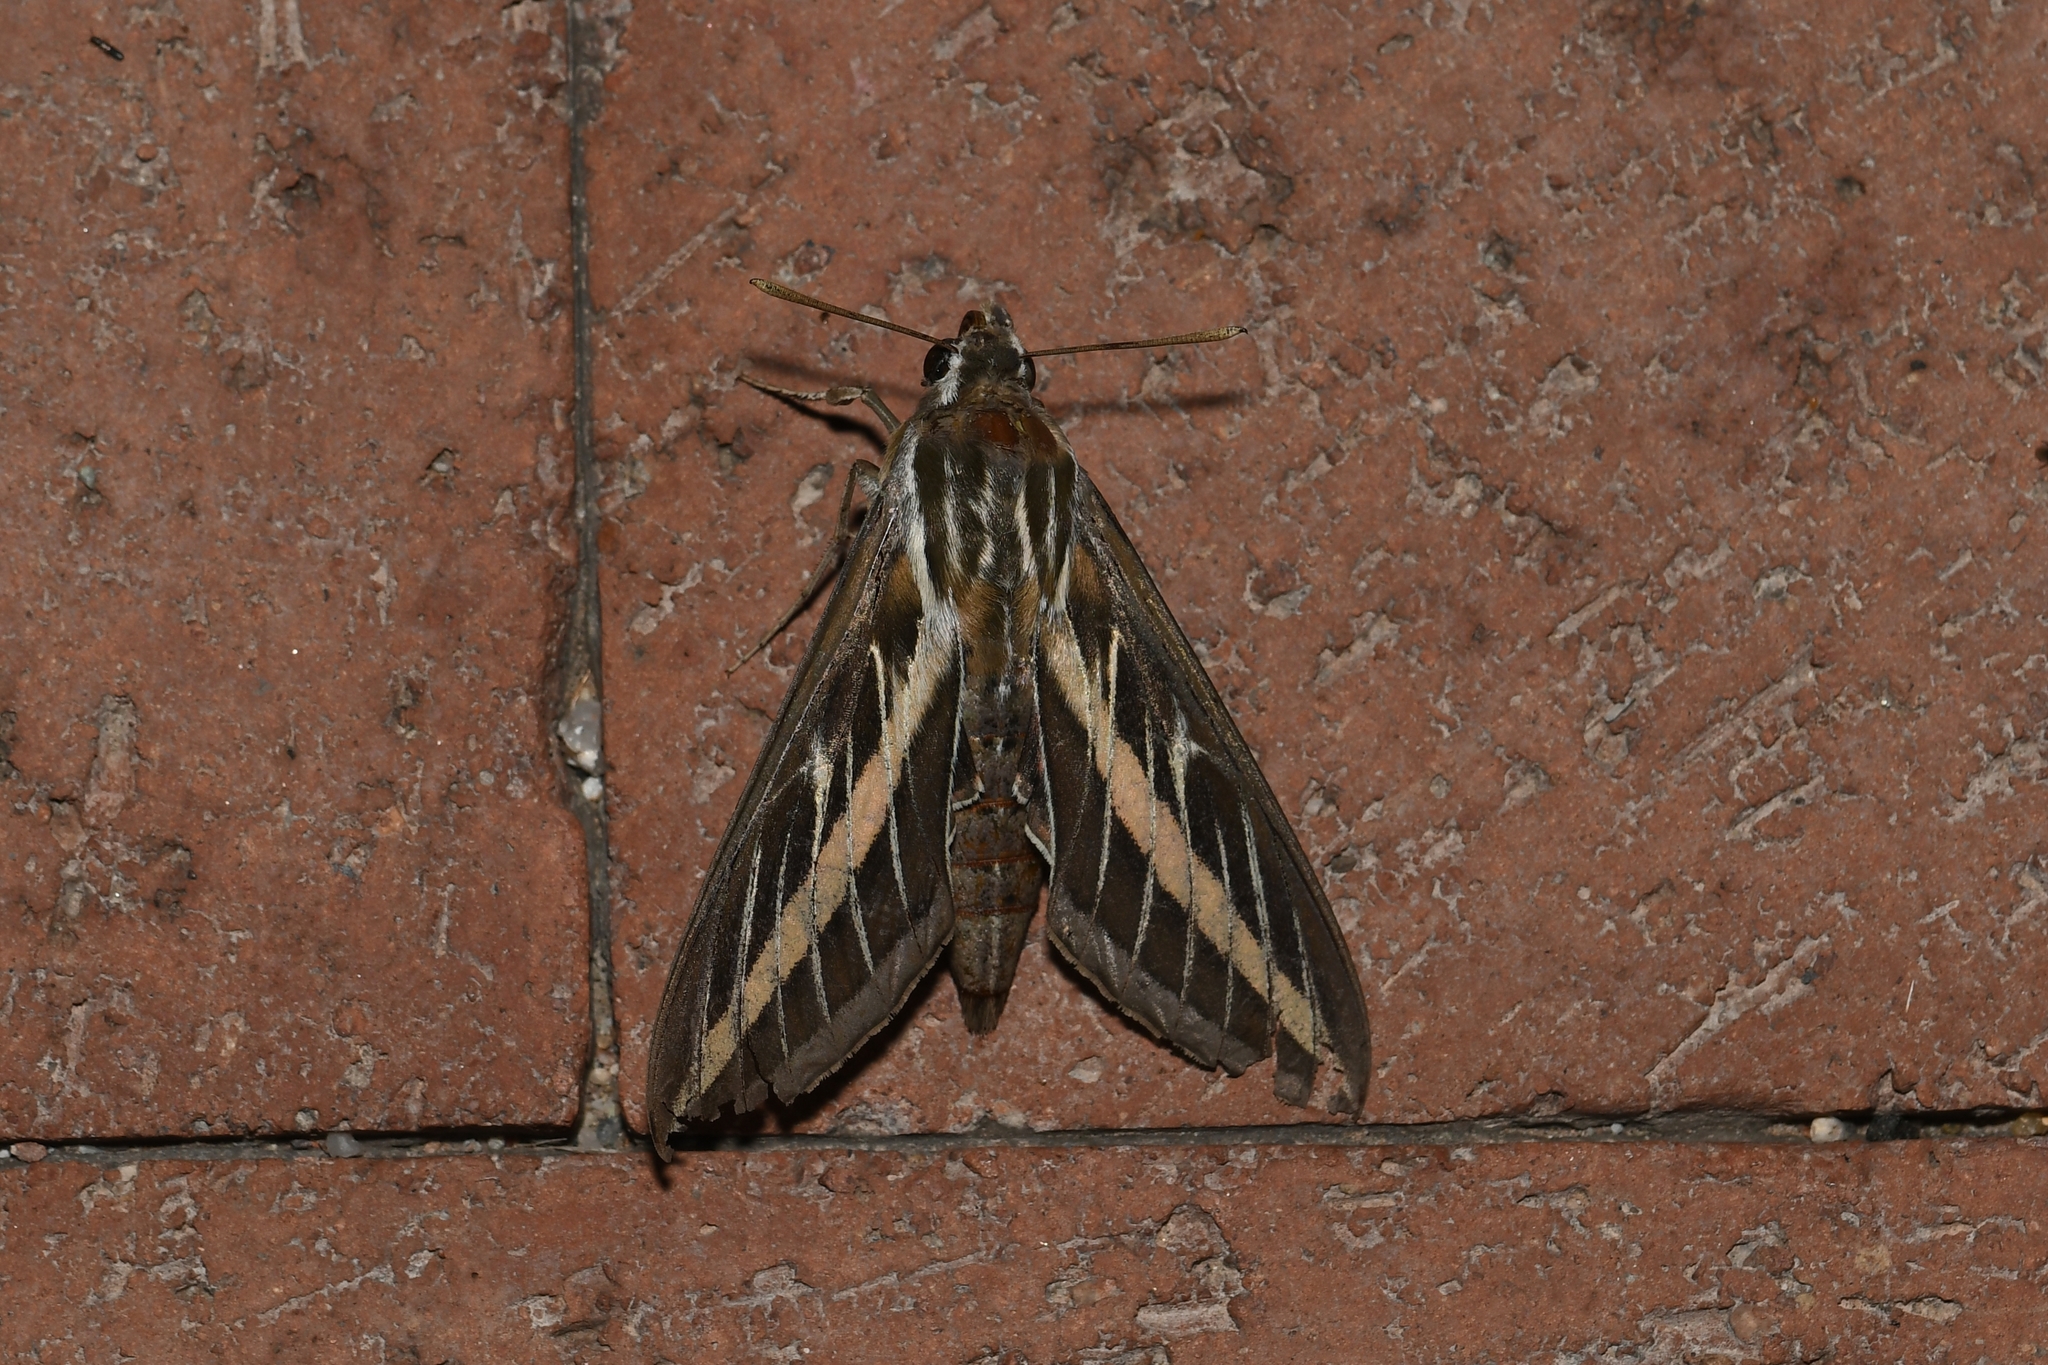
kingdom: Animalia
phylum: Arthropoda
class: Insecta
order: Lepidoptera
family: Sphingidae
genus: Hyles
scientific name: Hyles lineata
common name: White-lined sphinx
